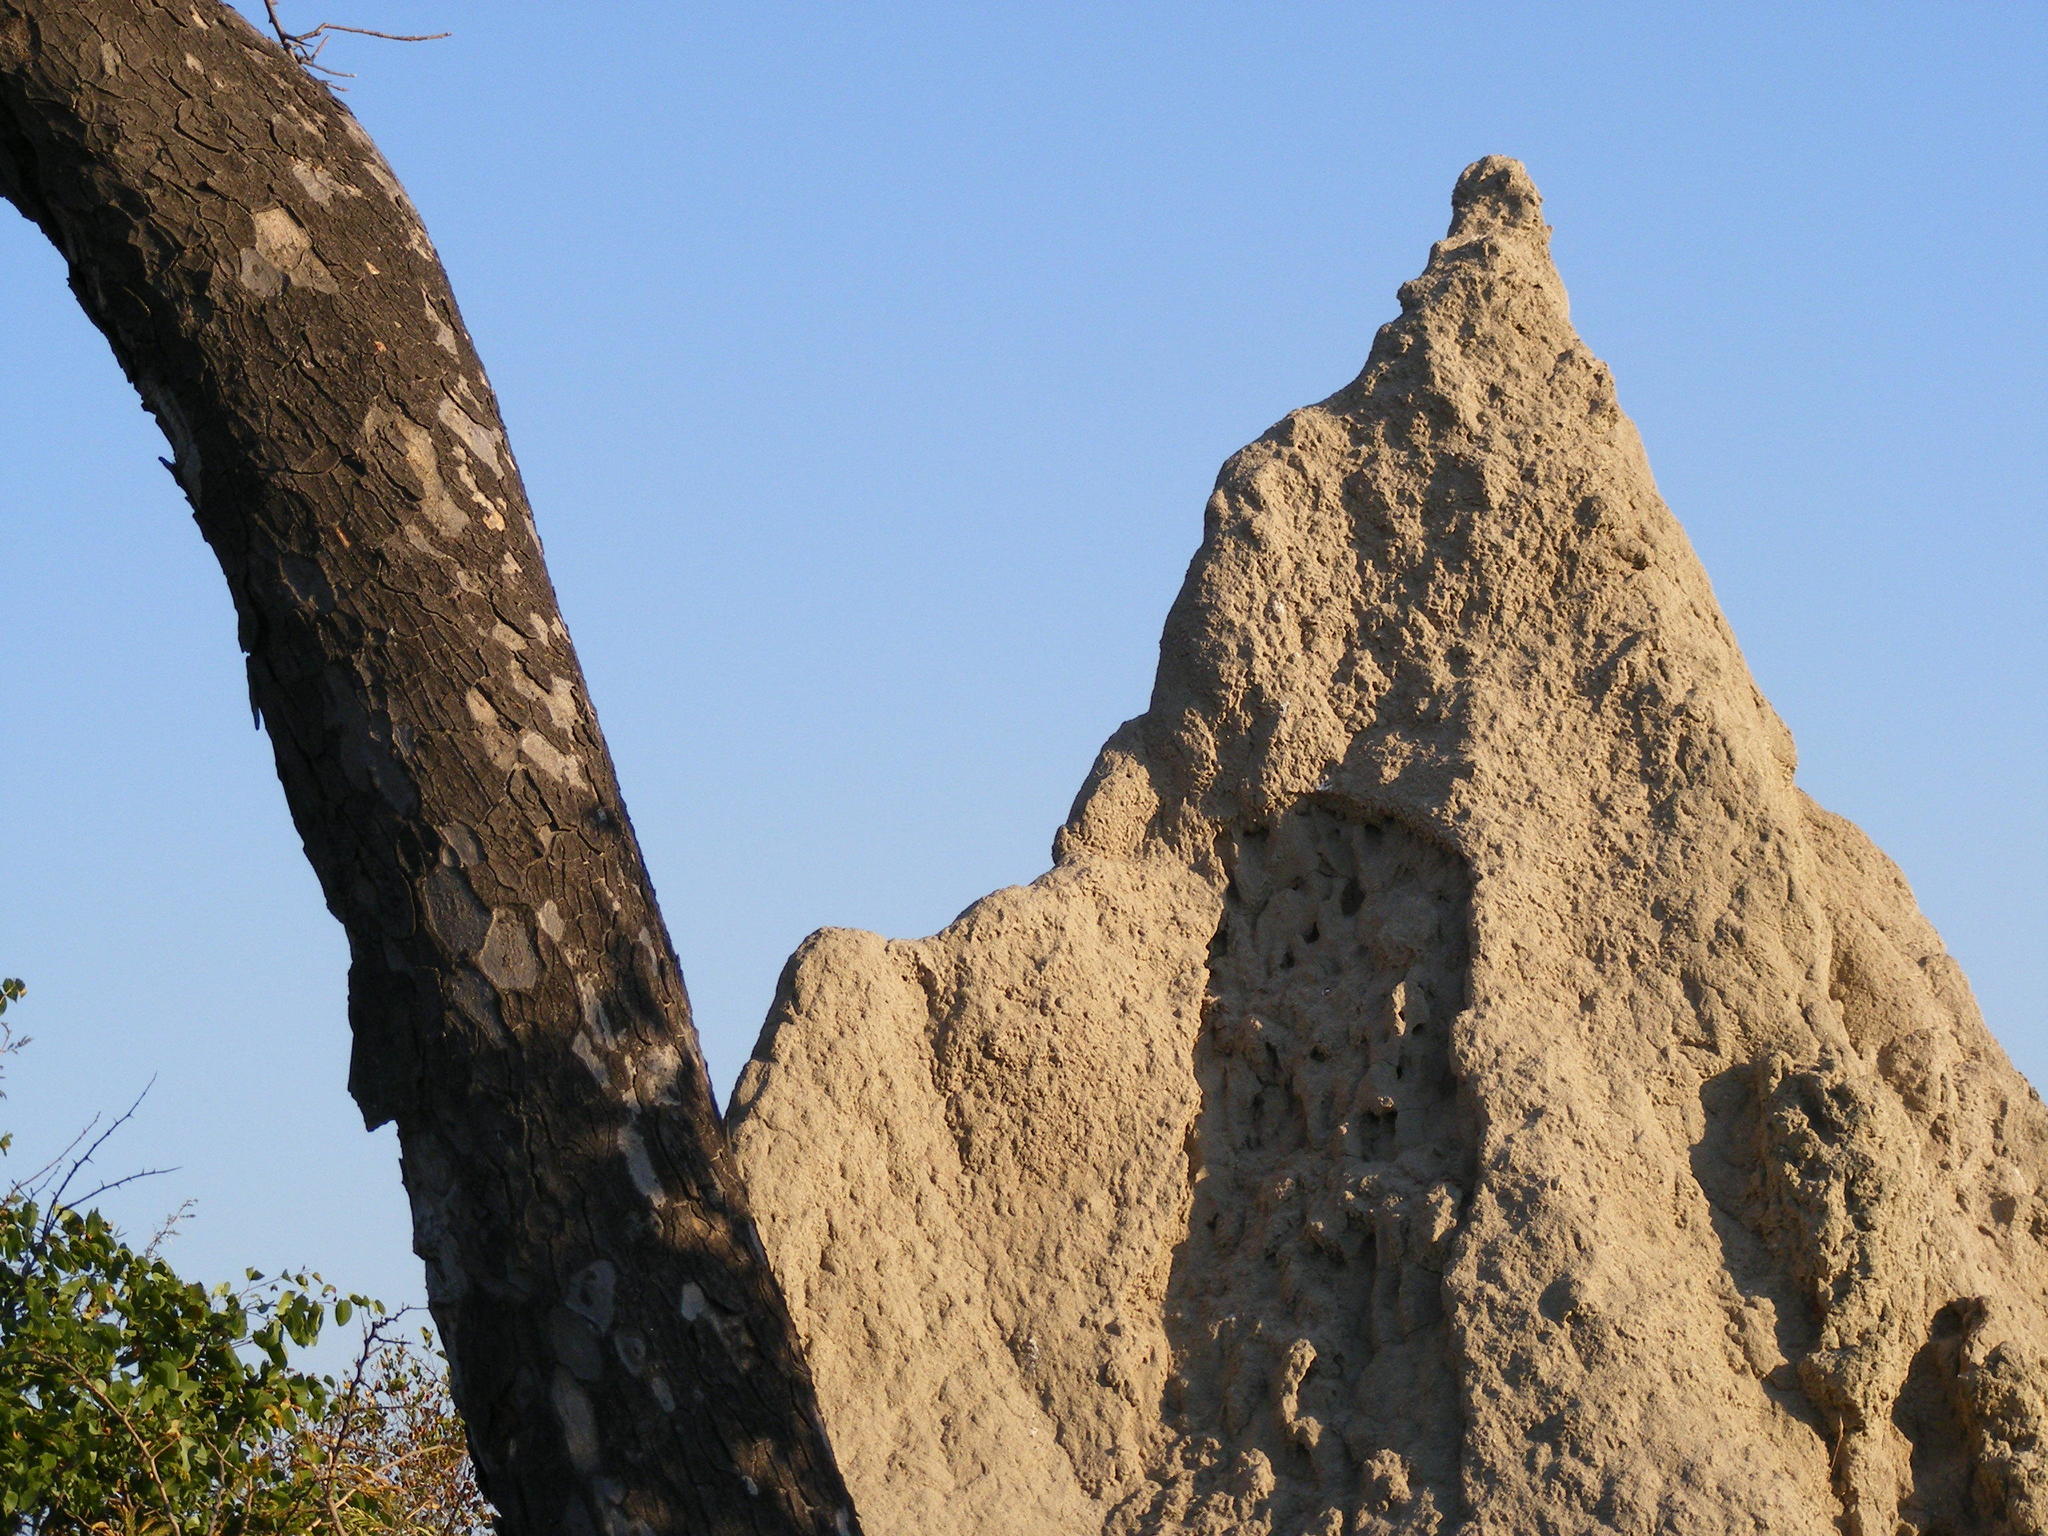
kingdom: Plantae
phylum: Tracheophyta
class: Magnoliopsida
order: Sapindales
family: Anacardiaceae
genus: Lannea
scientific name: Lannea schweinfurthii
